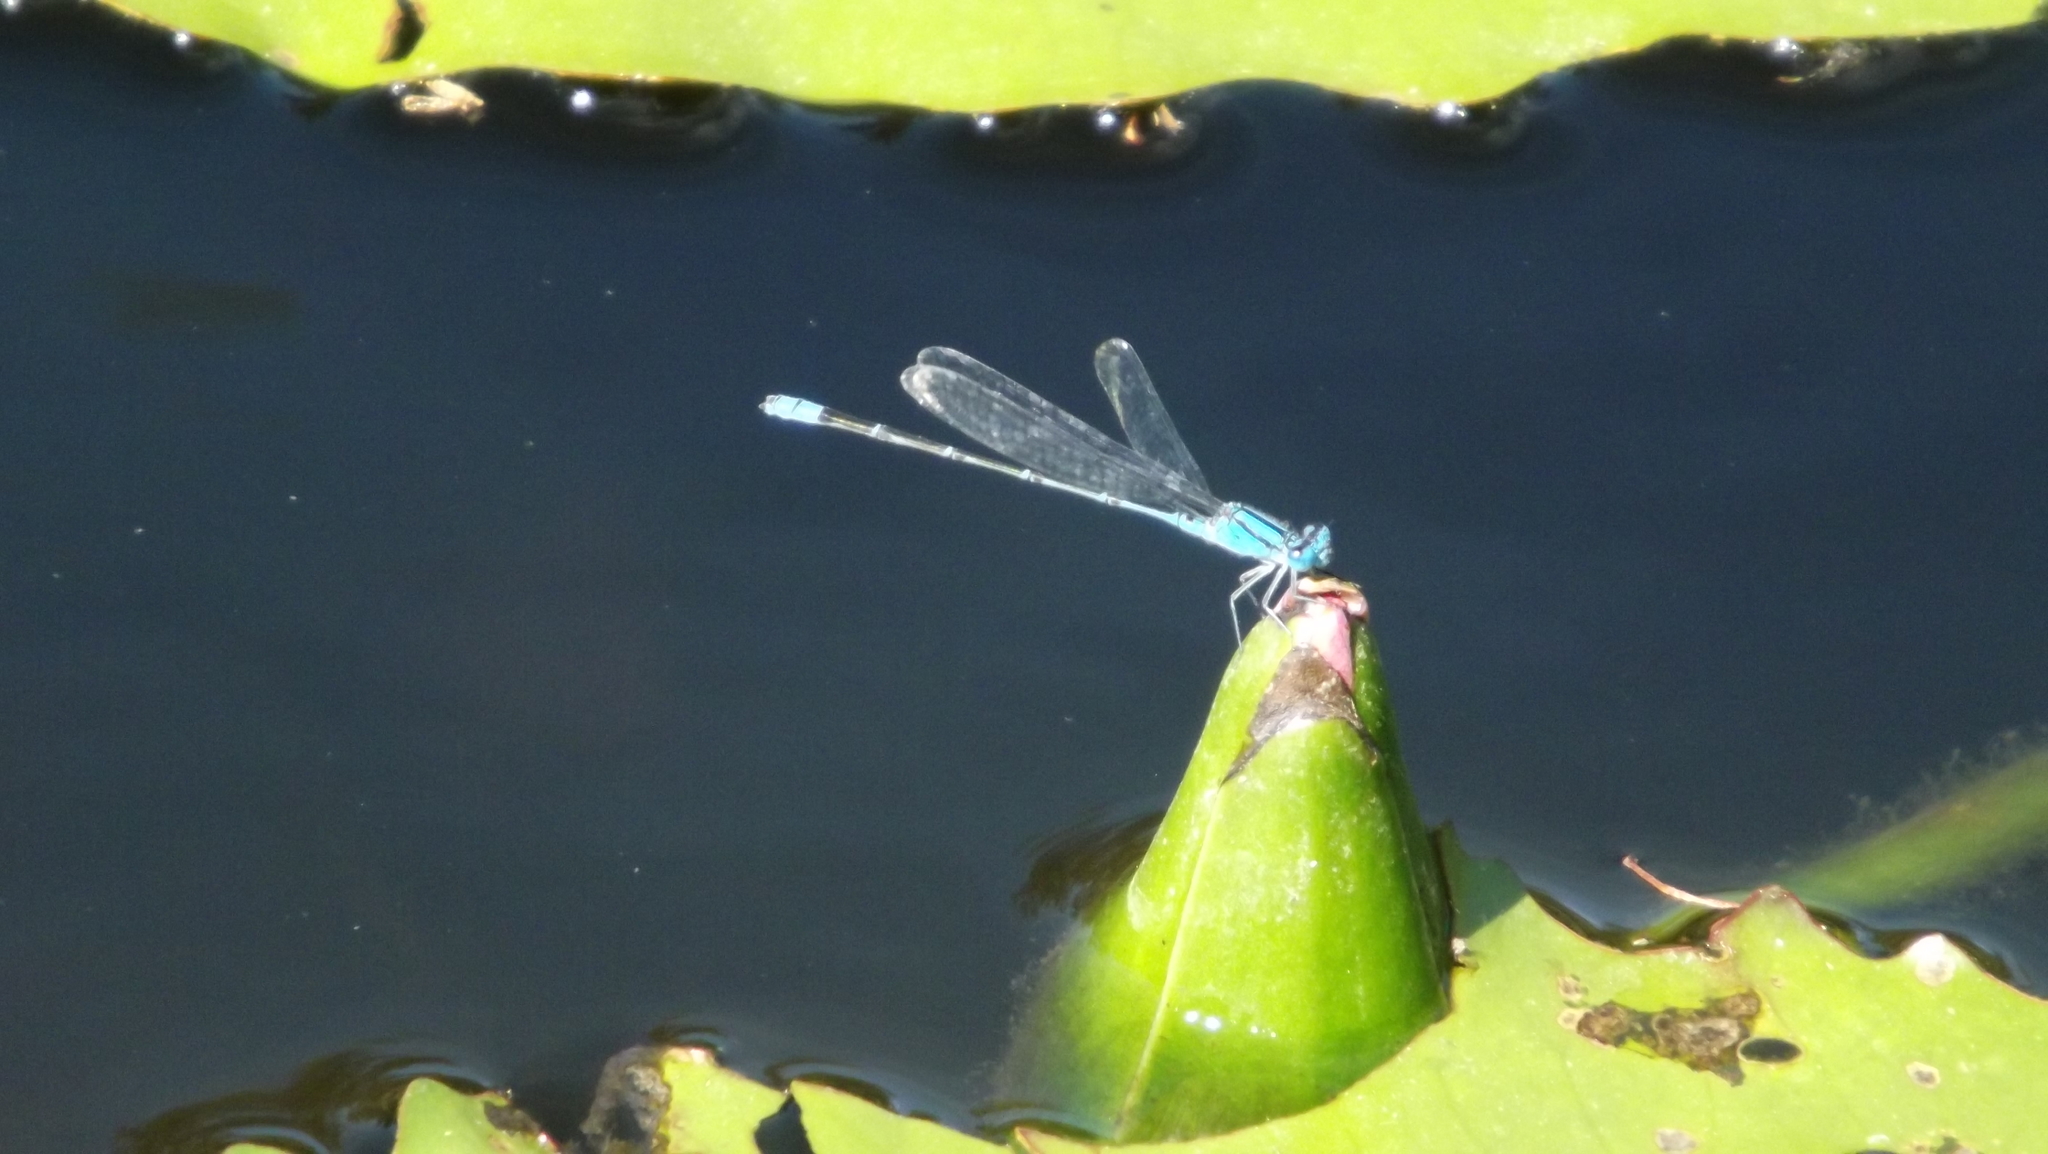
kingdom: Animalia
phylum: Arthropoda
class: Insecta
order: Odonata
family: Coenagrionidae
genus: Pseudagrion
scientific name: Pseudagrion microcephalum
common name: Blue riverdamsel
